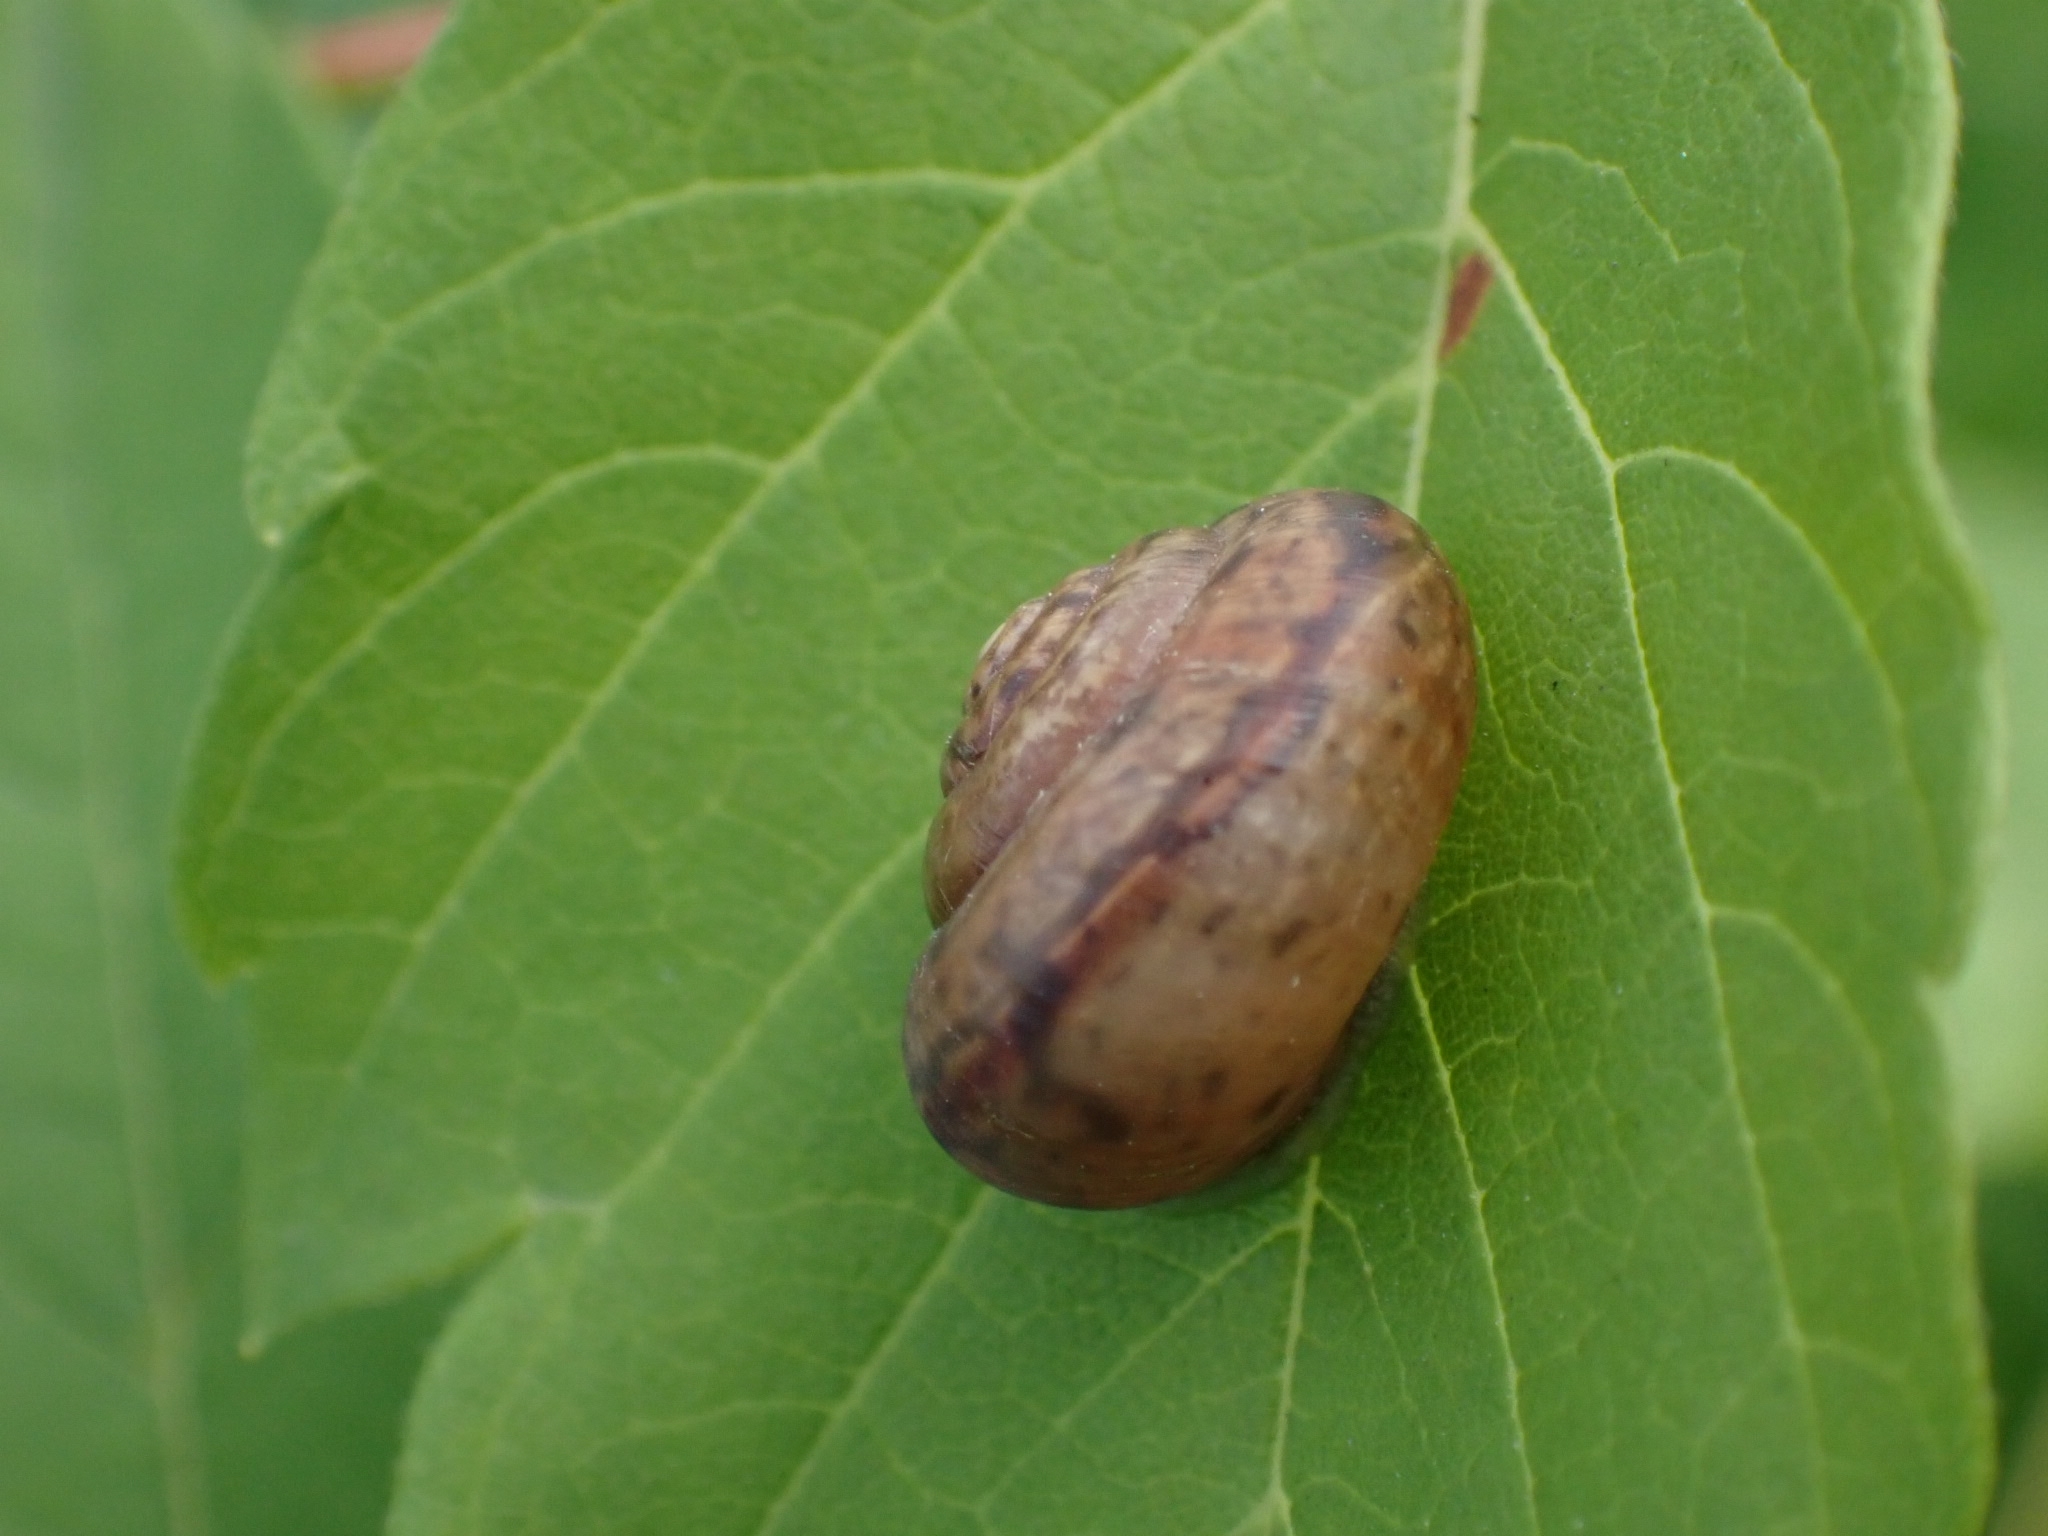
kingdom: Animalia
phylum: Mollusca
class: Gastropoda
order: Stylommatophora
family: Camaenidae
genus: Fruticicola
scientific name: Fruticicola fruticum
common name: Bush snail
